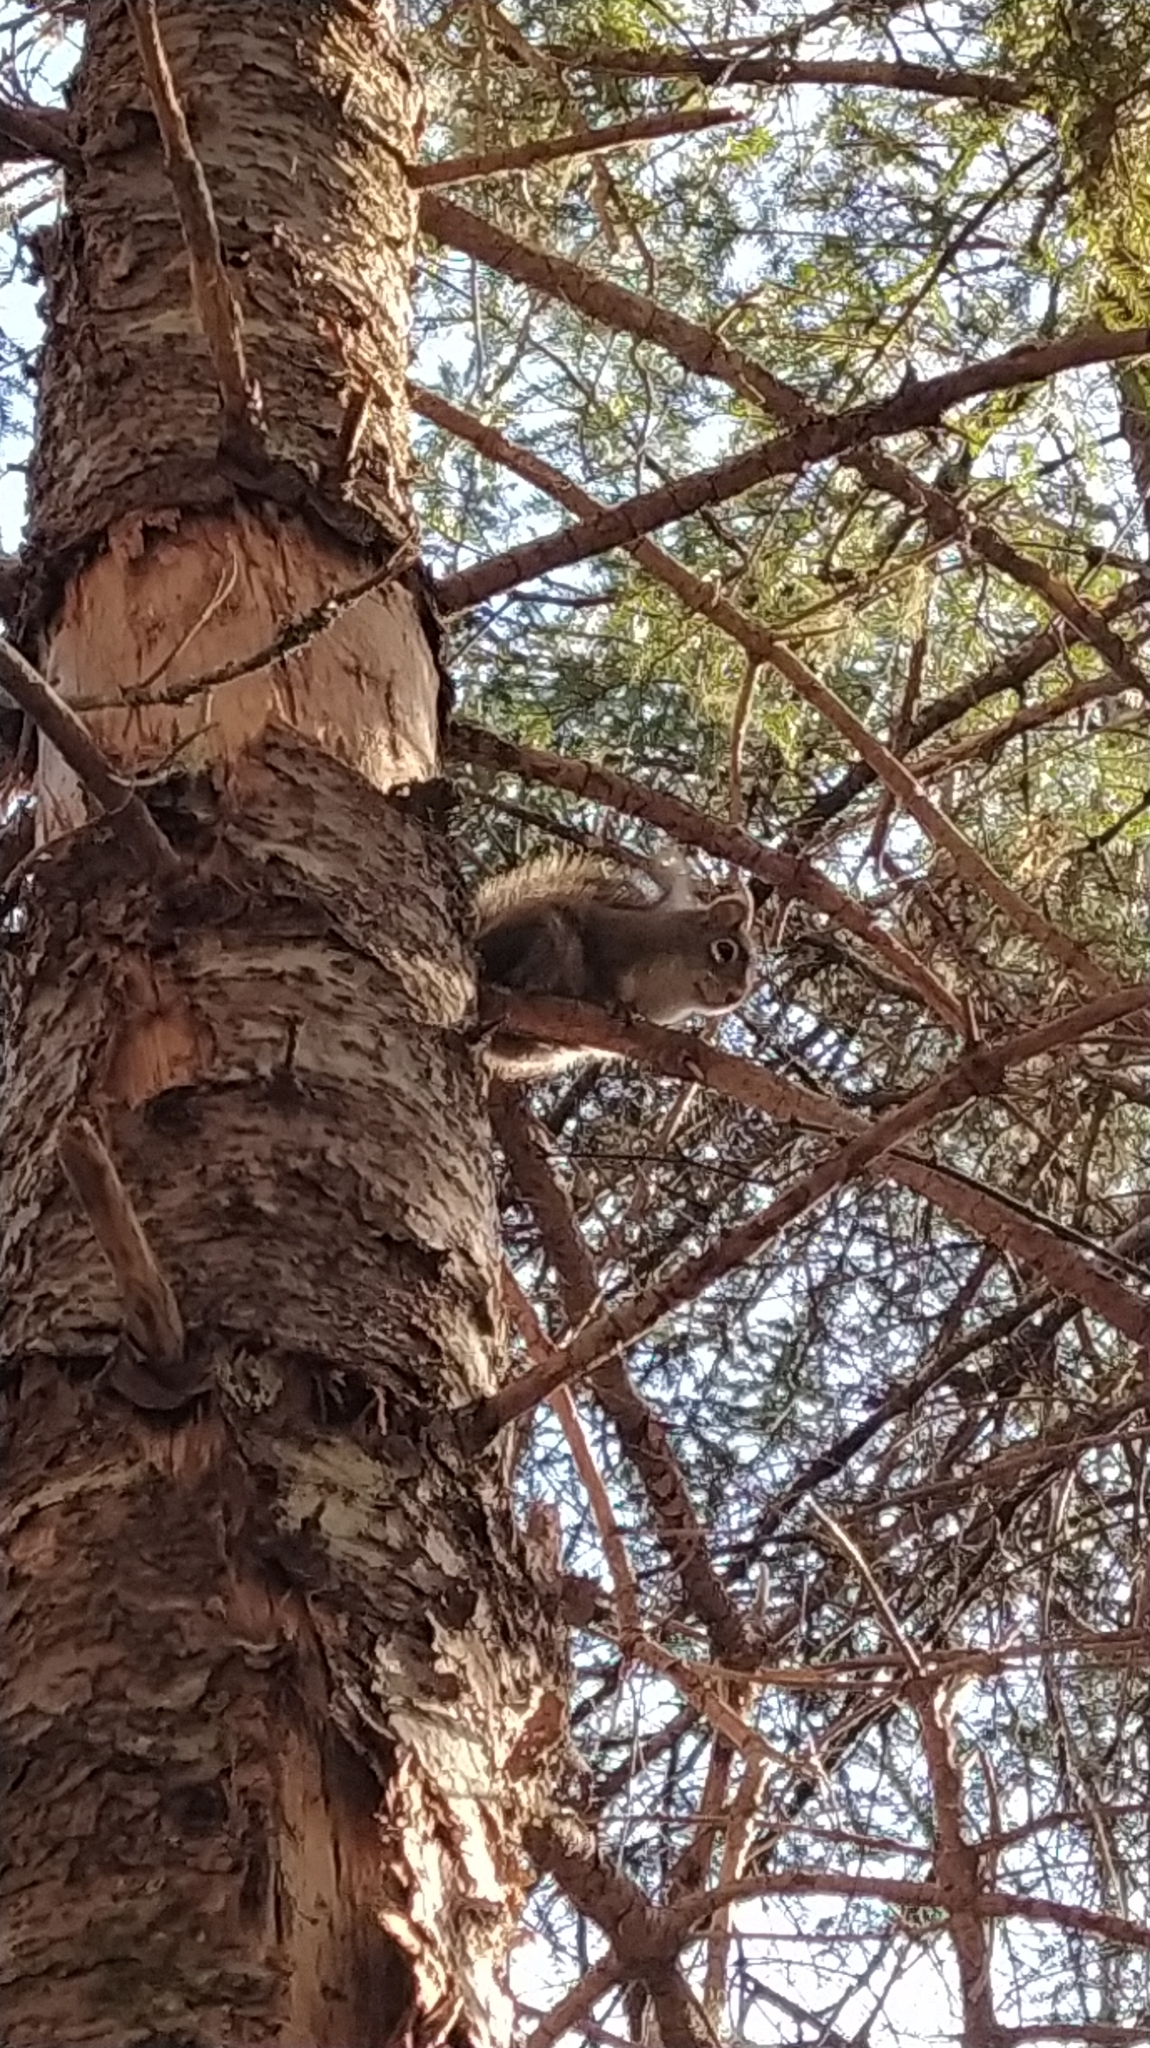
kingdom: Animalia
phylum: Chordata
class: Mammalia
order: Rodentia
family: Sciuridae
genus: Tamiasciurus
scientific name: Tamiasciurus hudsonicus
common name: Red squirrel
